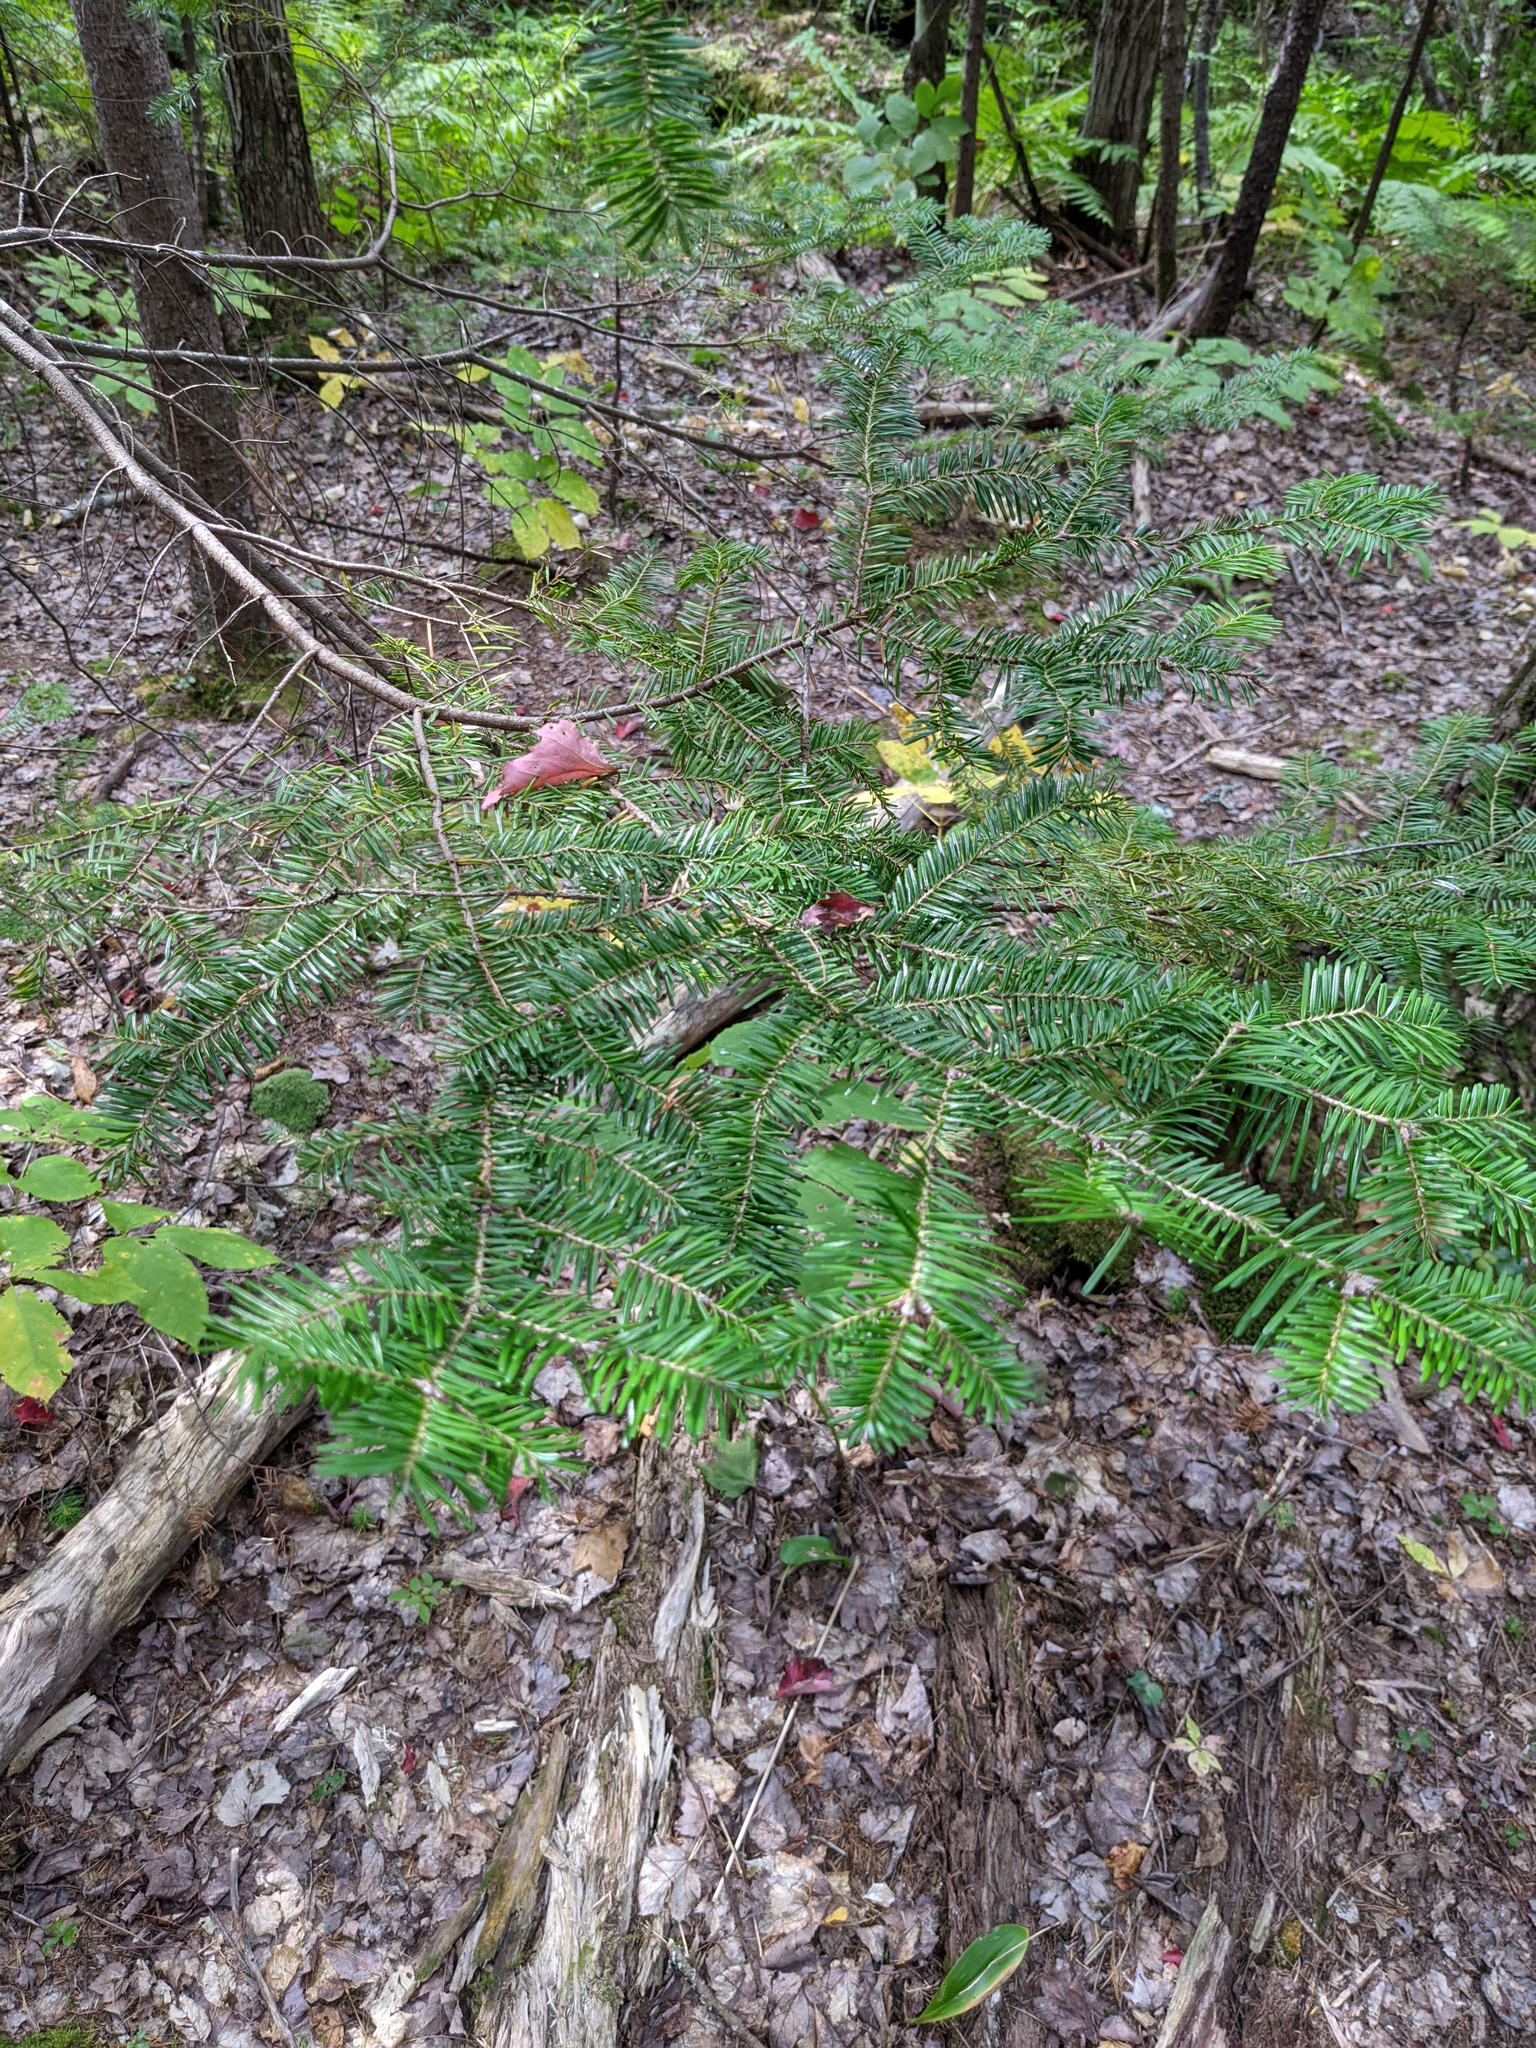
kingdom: Plantae
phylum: Tracheophyta
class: Pinopsida
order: Pinales
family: Pinaceae
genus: Abies
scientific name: Abies balsamea
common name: Balsam fir
